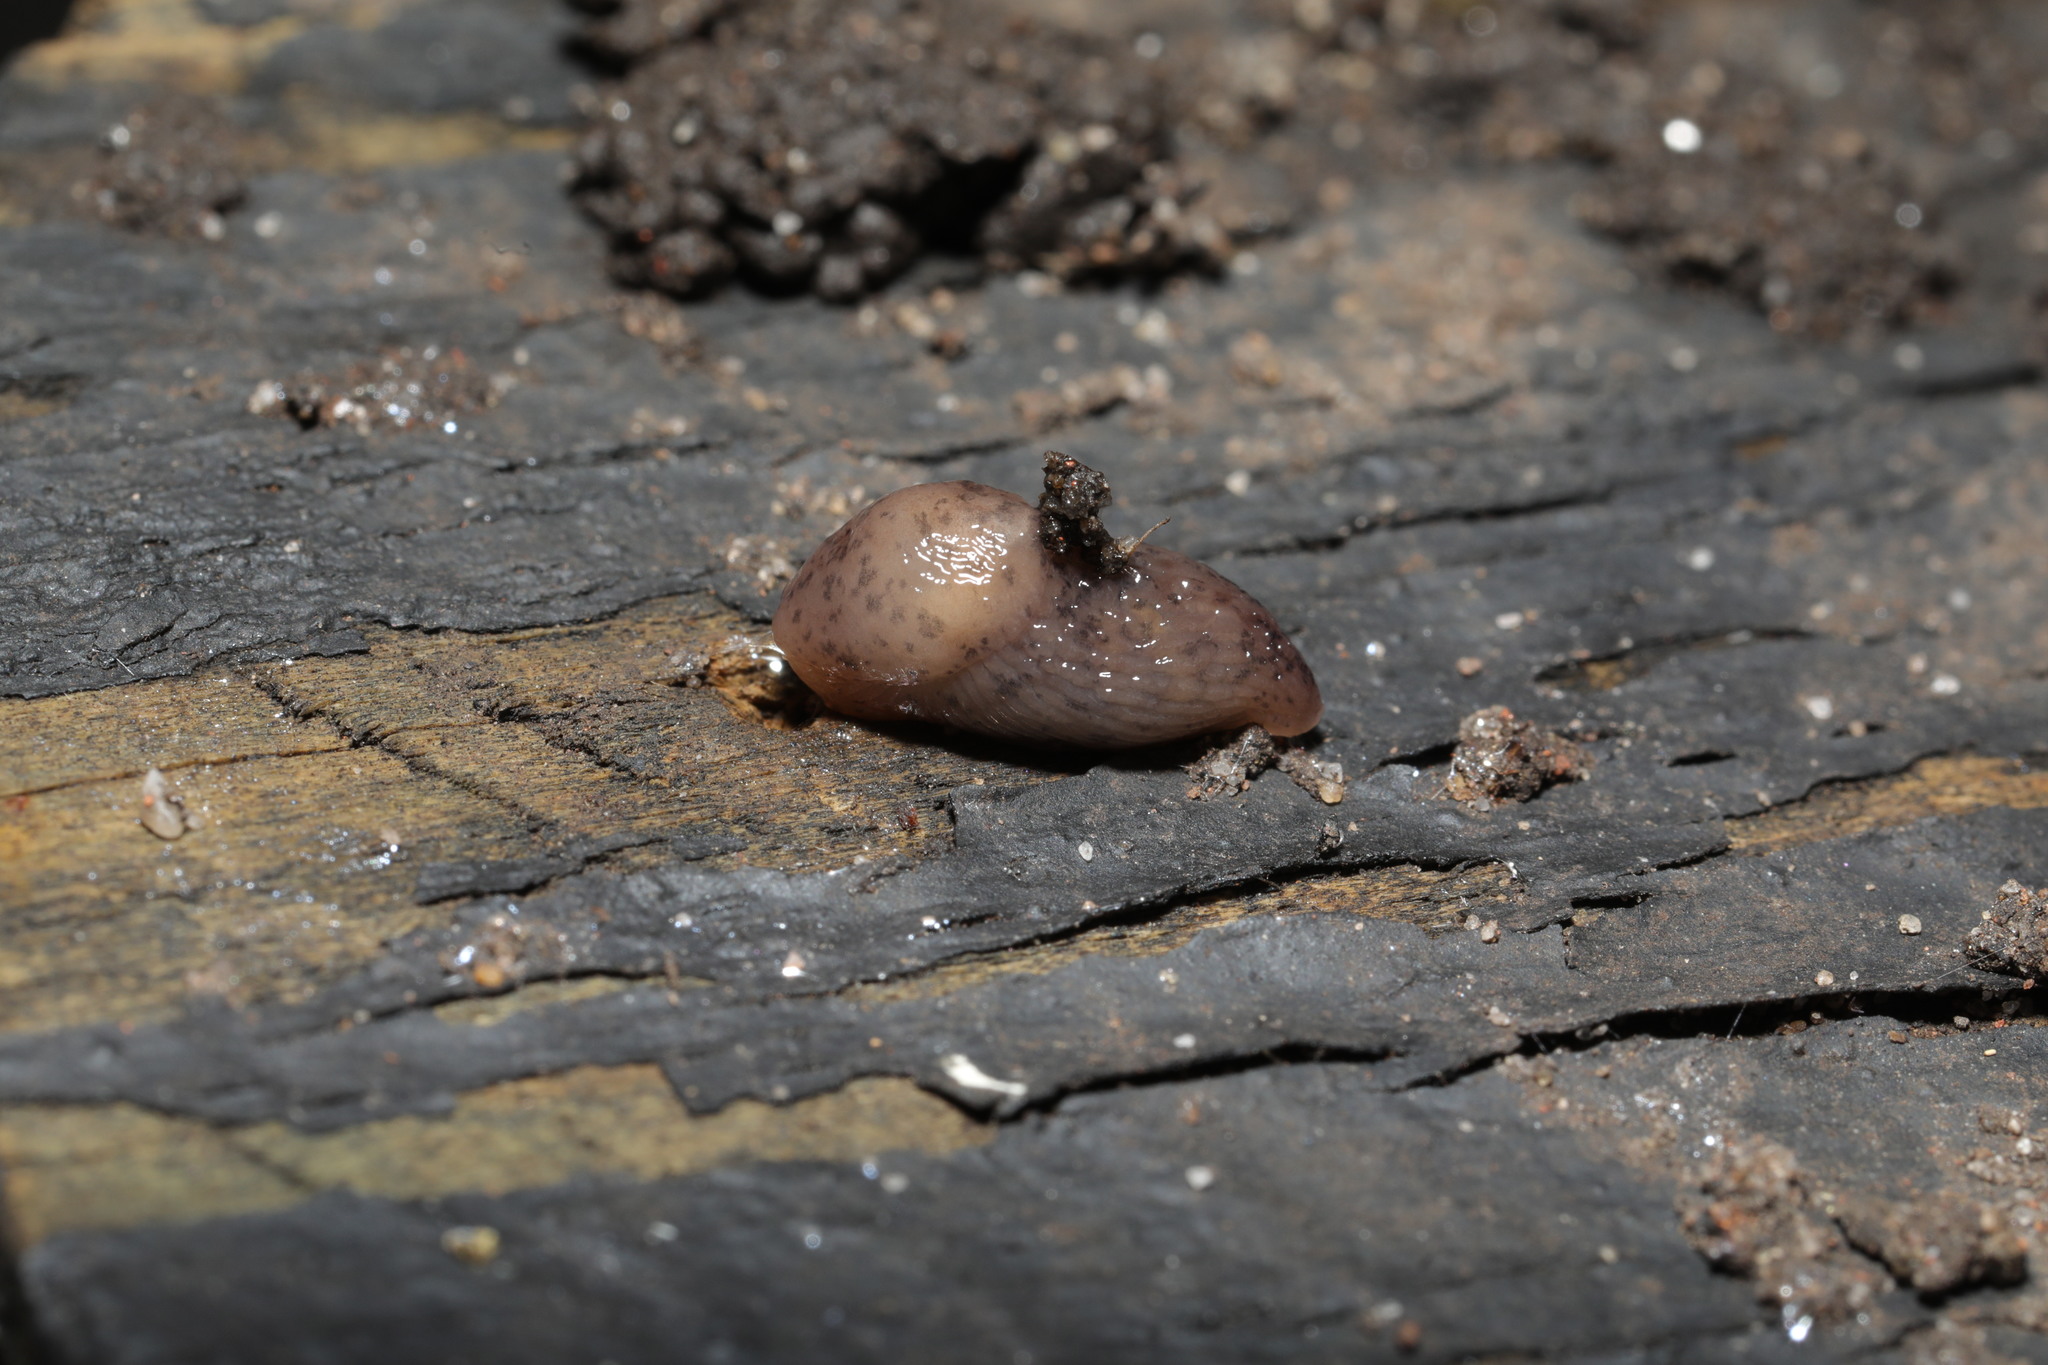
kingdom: Animalia
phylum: Mollusca
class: Gastropoda
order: Stylommatophora
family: Agriolimacidae
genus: Deroceras
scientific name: Deroceras invadens
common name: Caruana's slug
